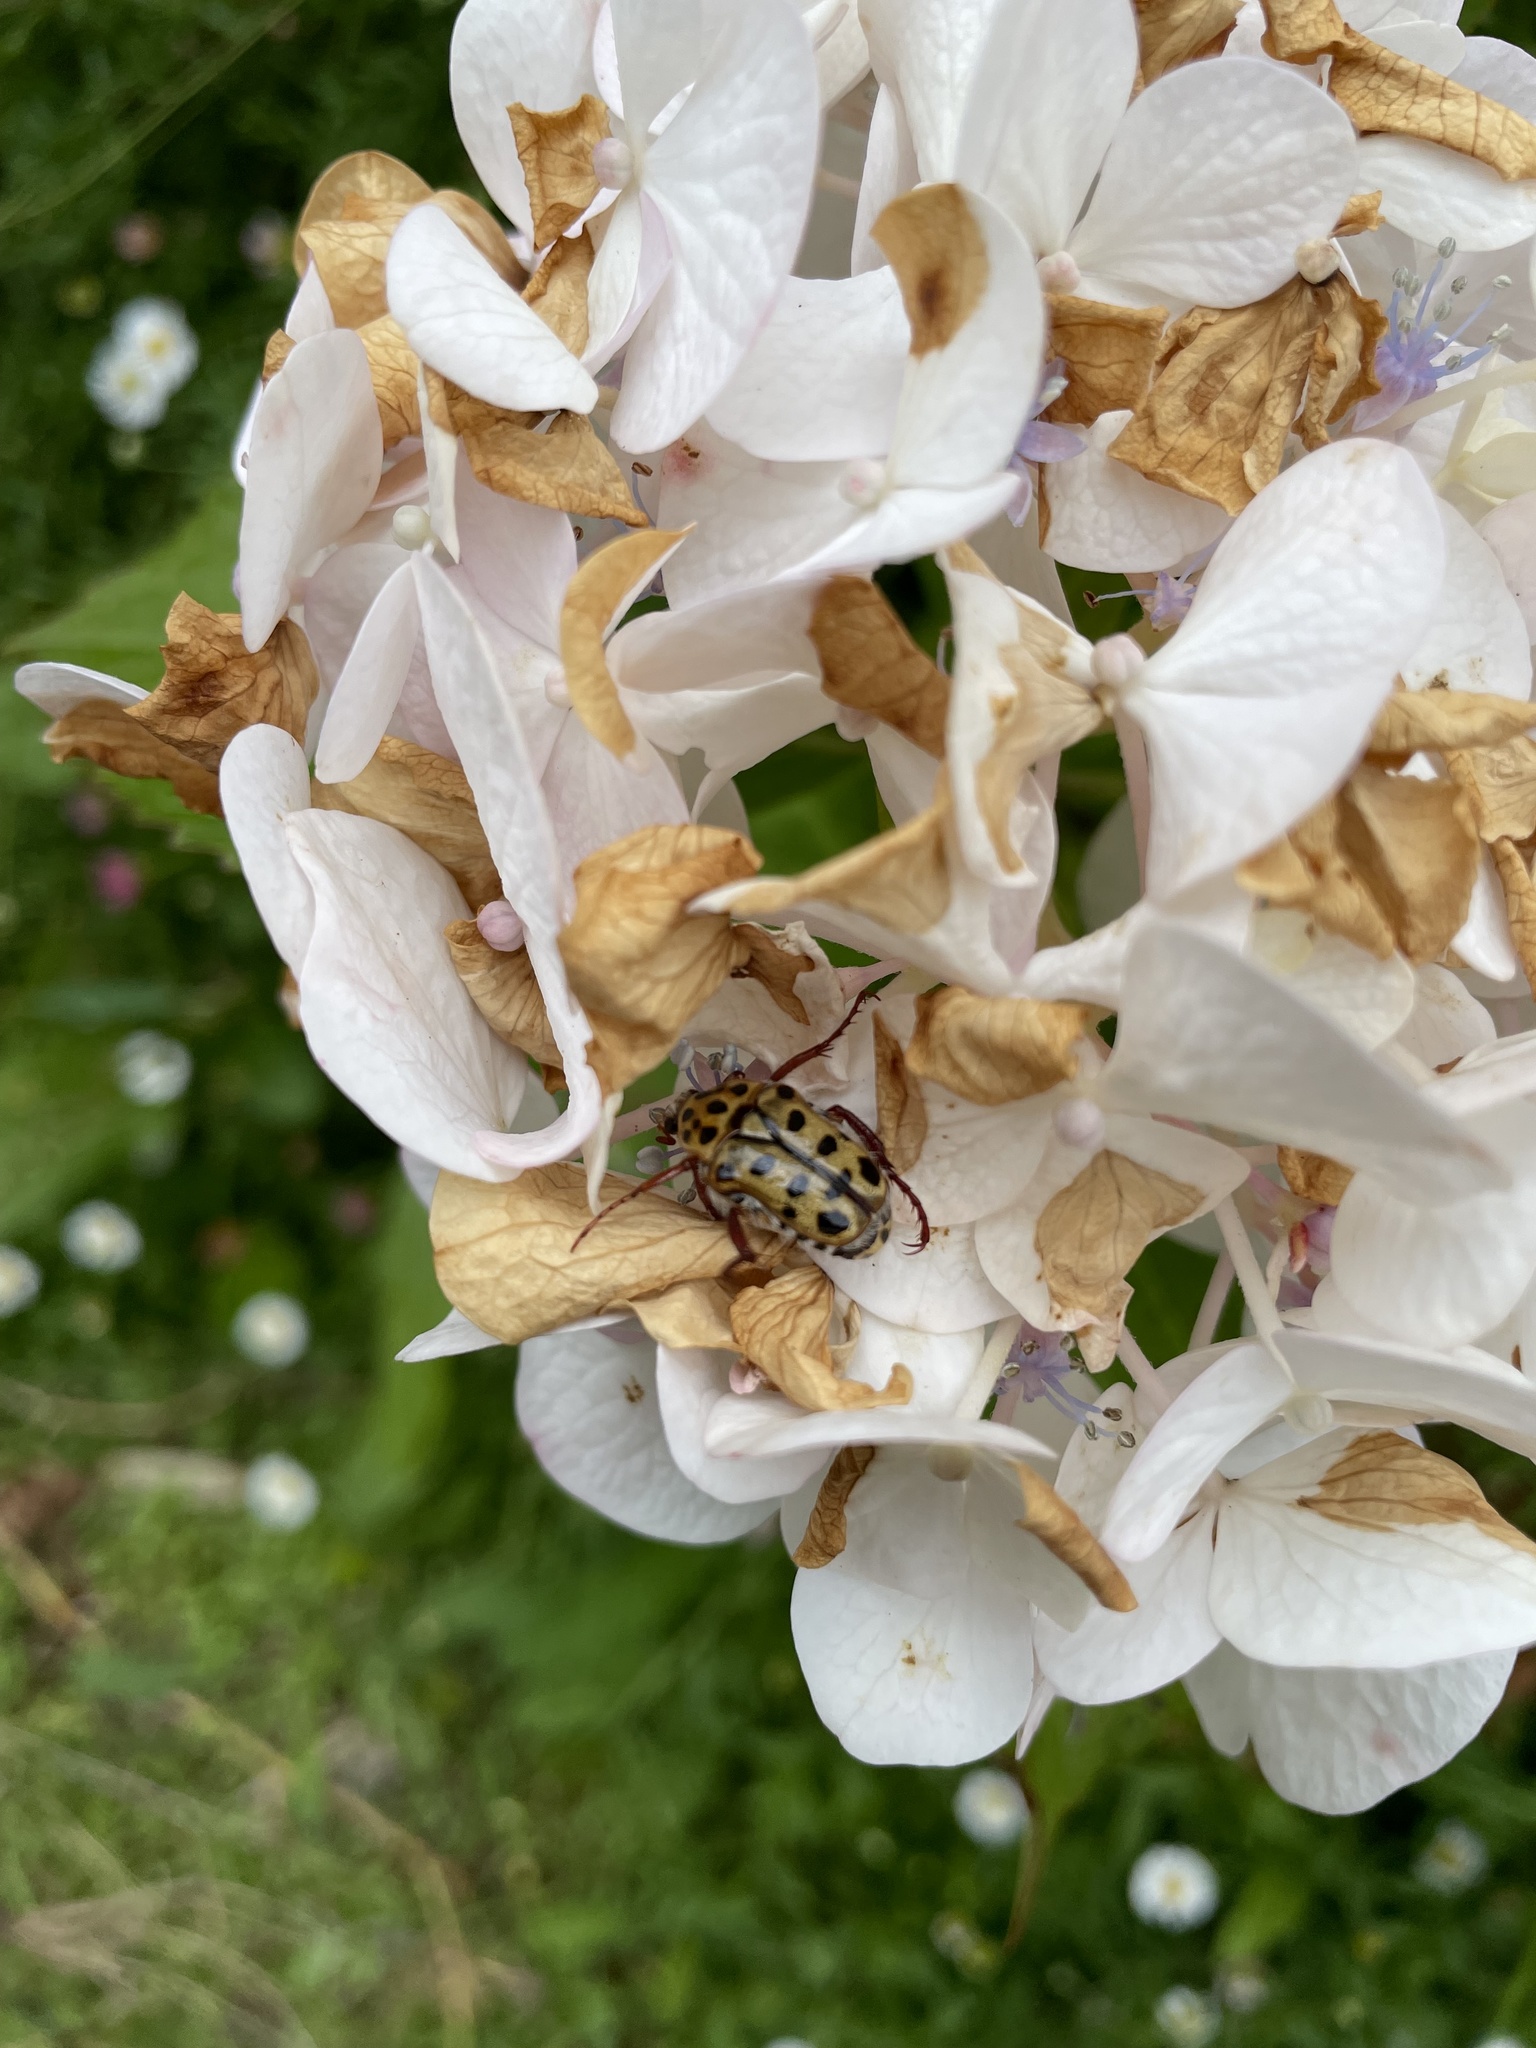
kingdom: Animalia
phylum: Arthropoda
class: Insecta
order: Coleoptera
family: Scarabaeidae
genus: Neorrhina
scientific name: Neorrhina punctatum
